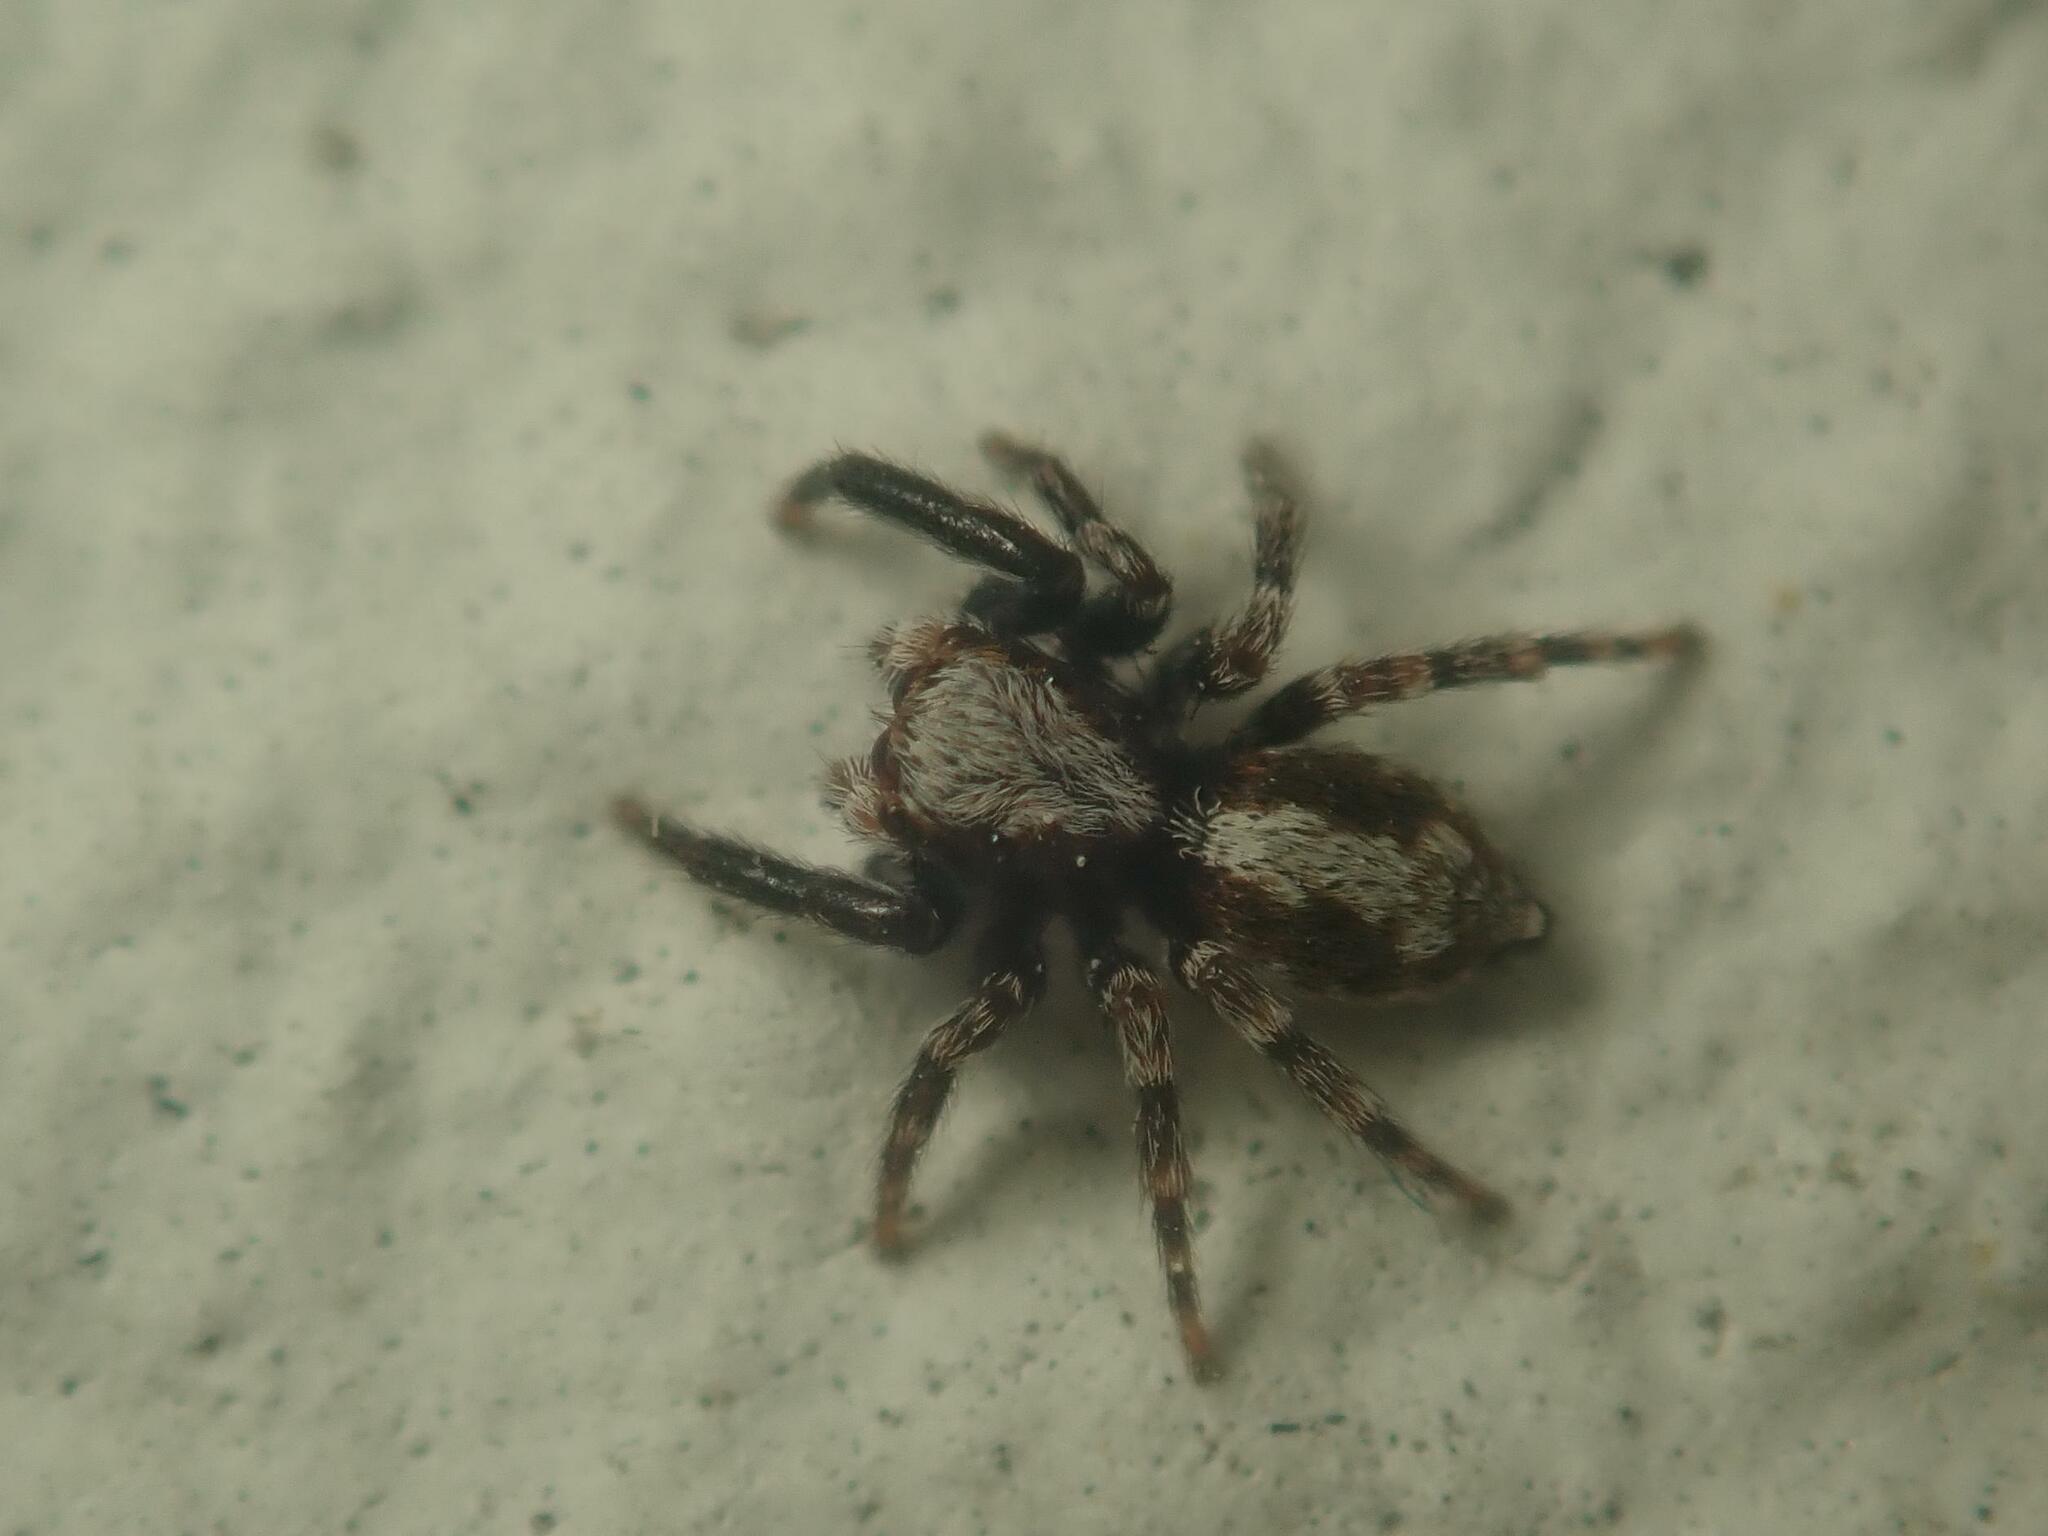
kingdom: Animalia
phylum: Arthropoda
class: Arachnida
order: Araneae
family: Salticidae
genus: Pseudeuophrys
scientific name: Pseudeuophrys lanigera
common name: Jumping spider
